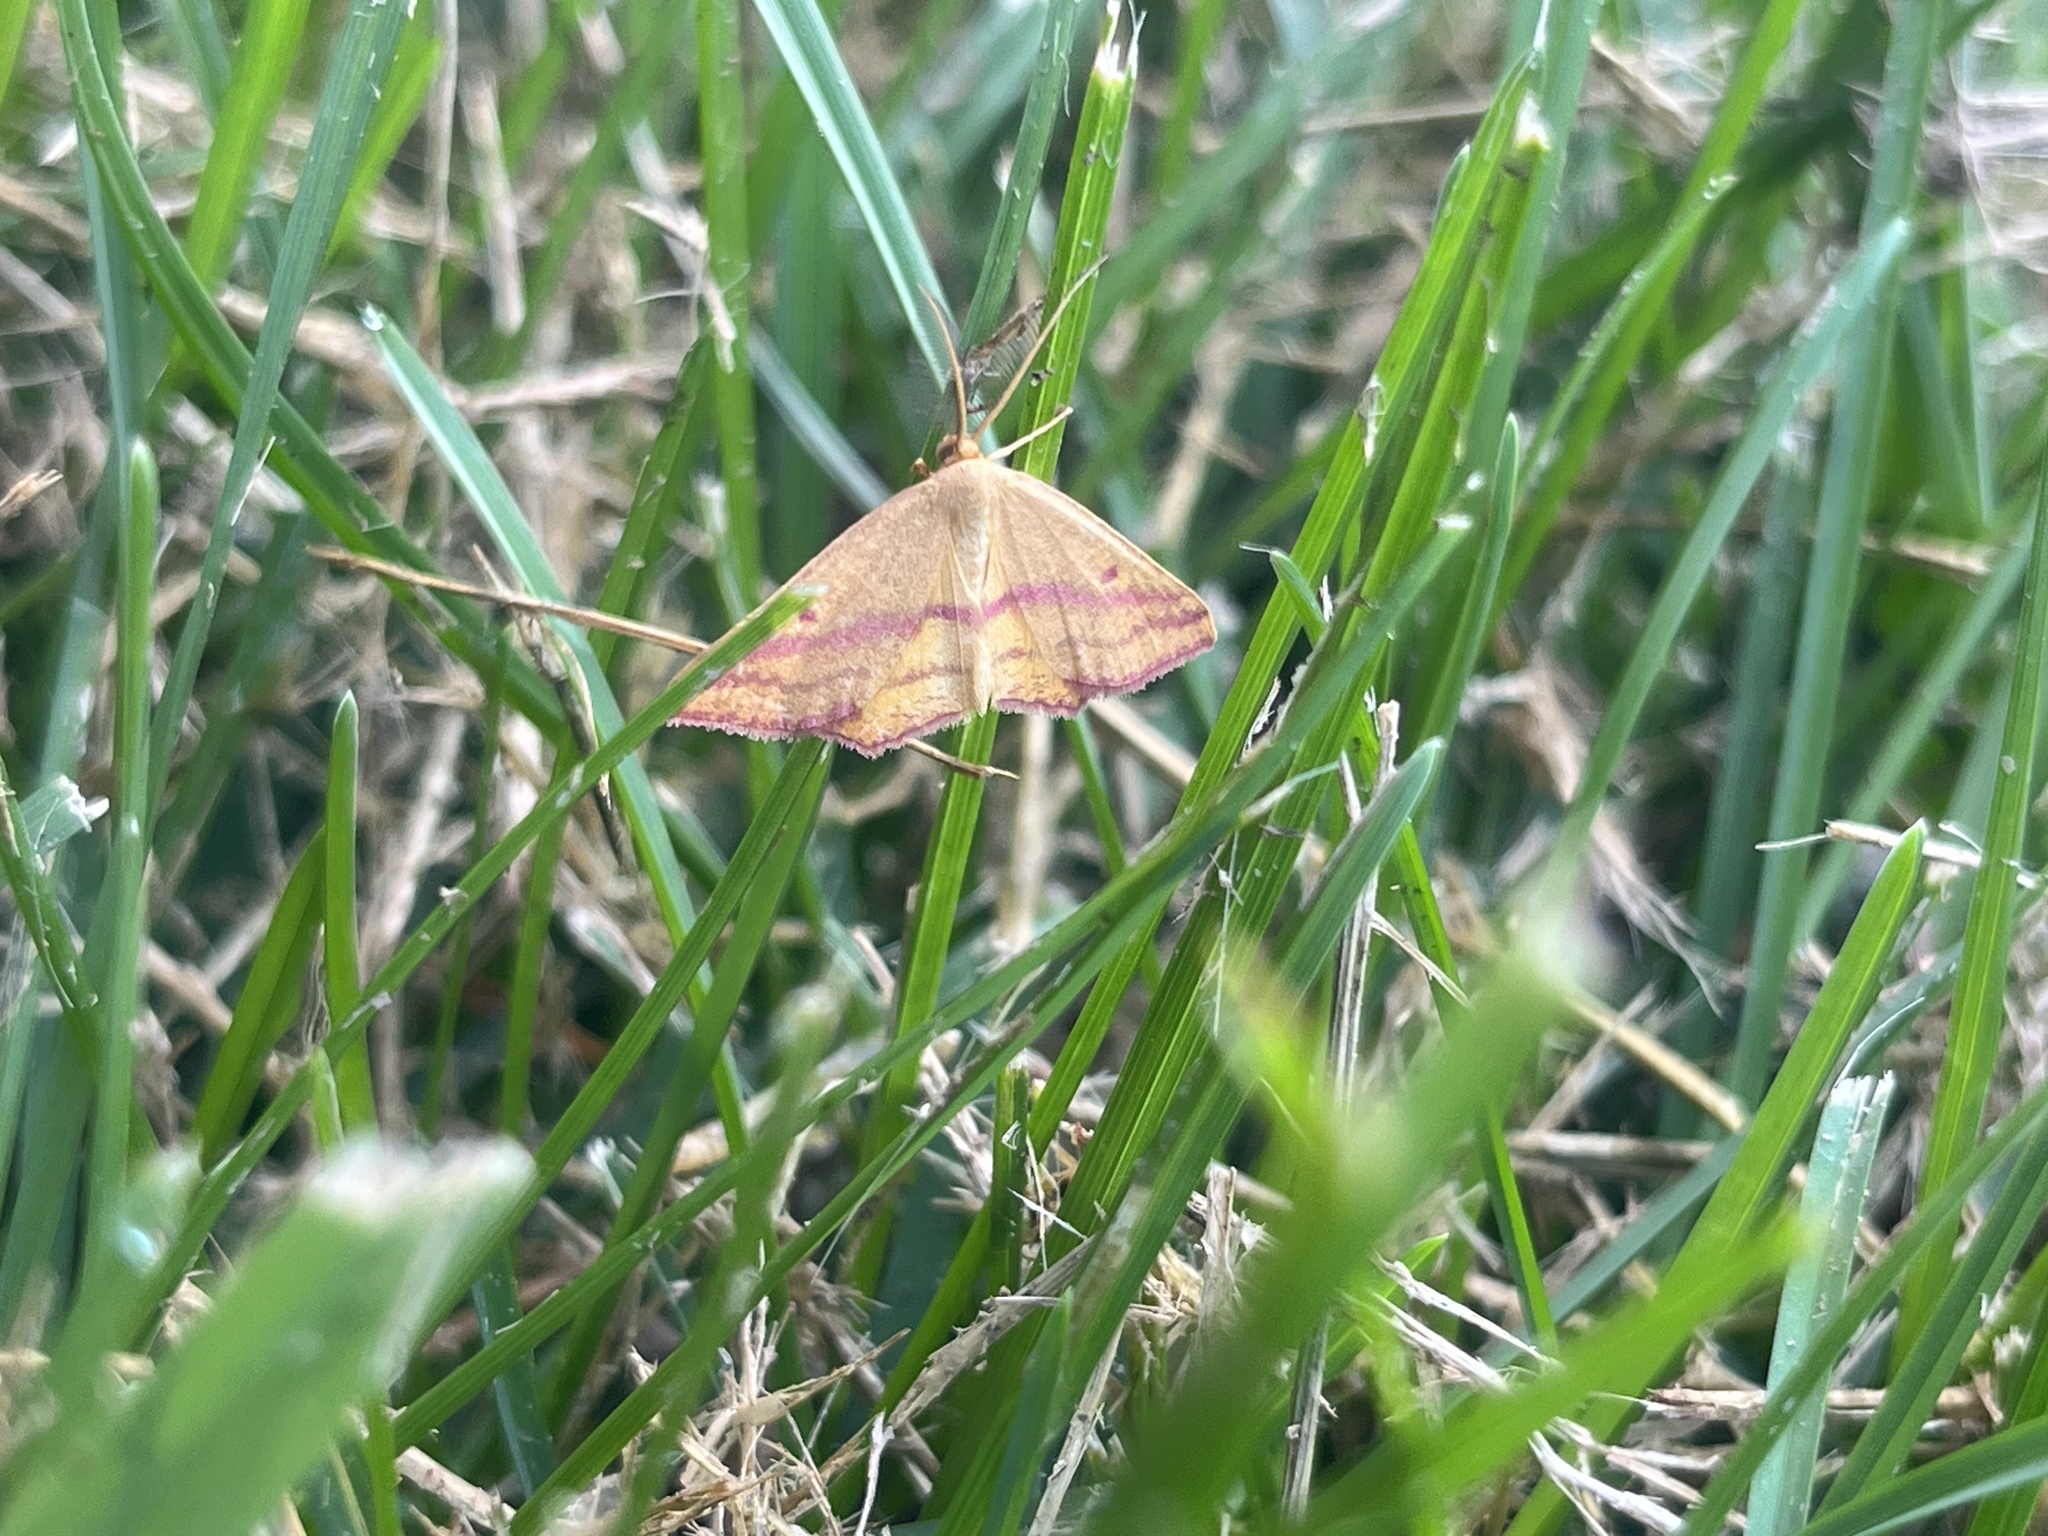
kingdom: Animalia
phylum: Arthropoda
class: Insecta
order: Lepidoptera
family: Geometridae
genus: Haematopis
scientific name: Haematopis grataria
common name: Chickweed geometer
